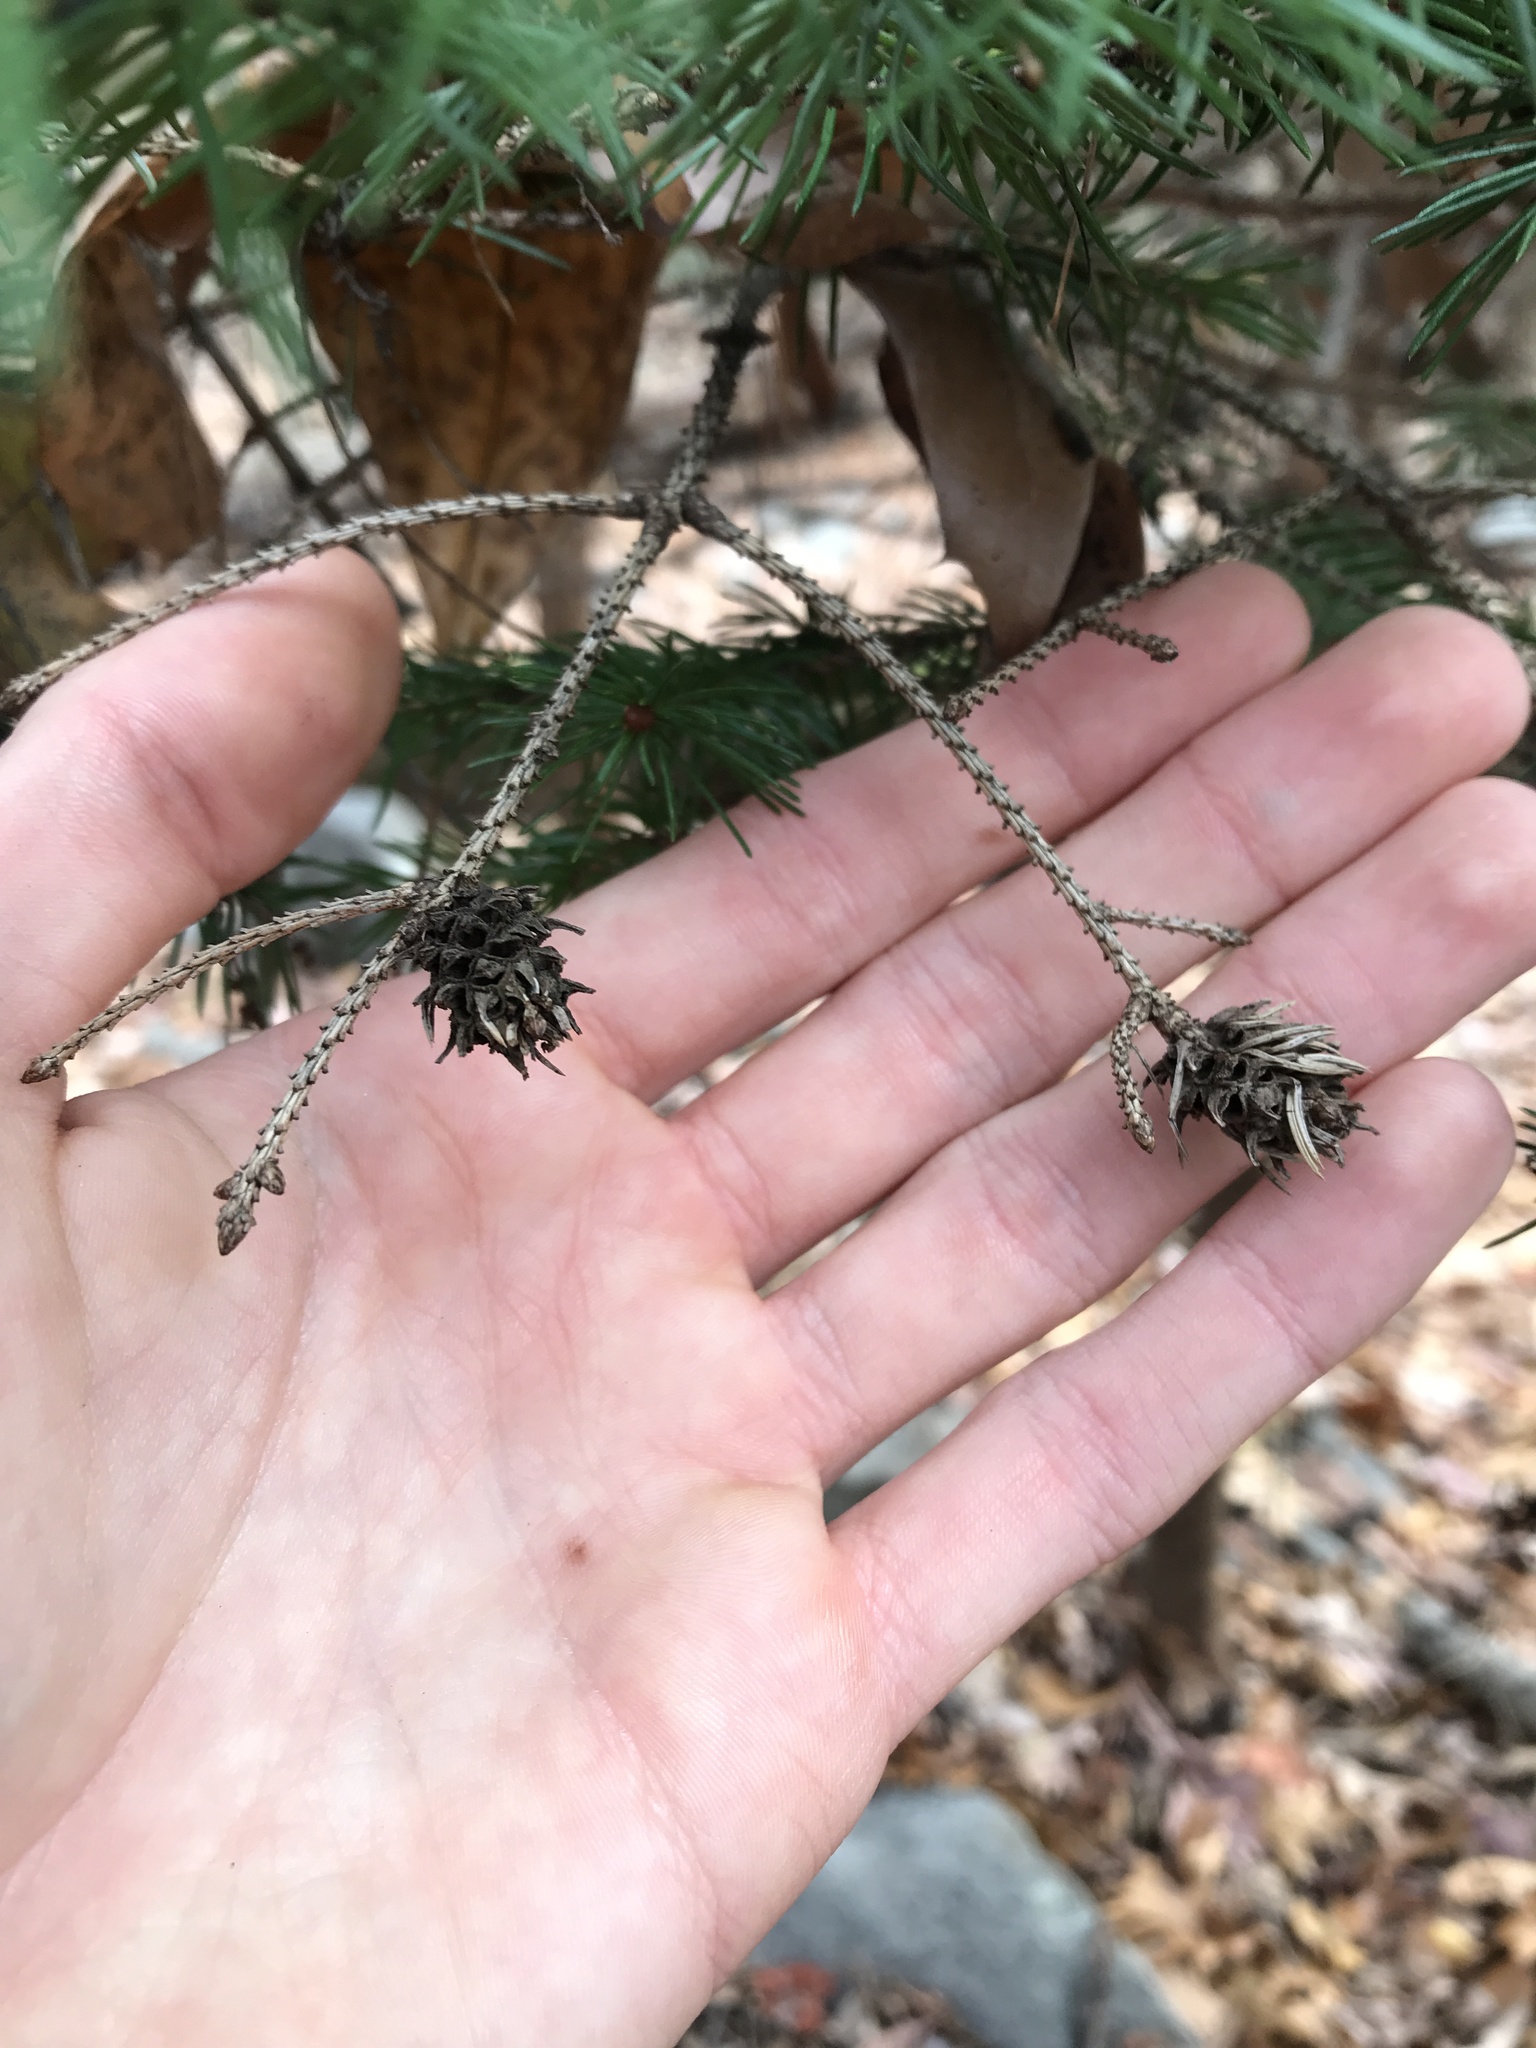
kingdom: Animalia
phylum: Arthropoda
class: Insecta
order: Hemiptera
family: Adelgidae
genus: Adelges
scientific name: Adelges abietis
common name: Eastern spruce gall adelgid
